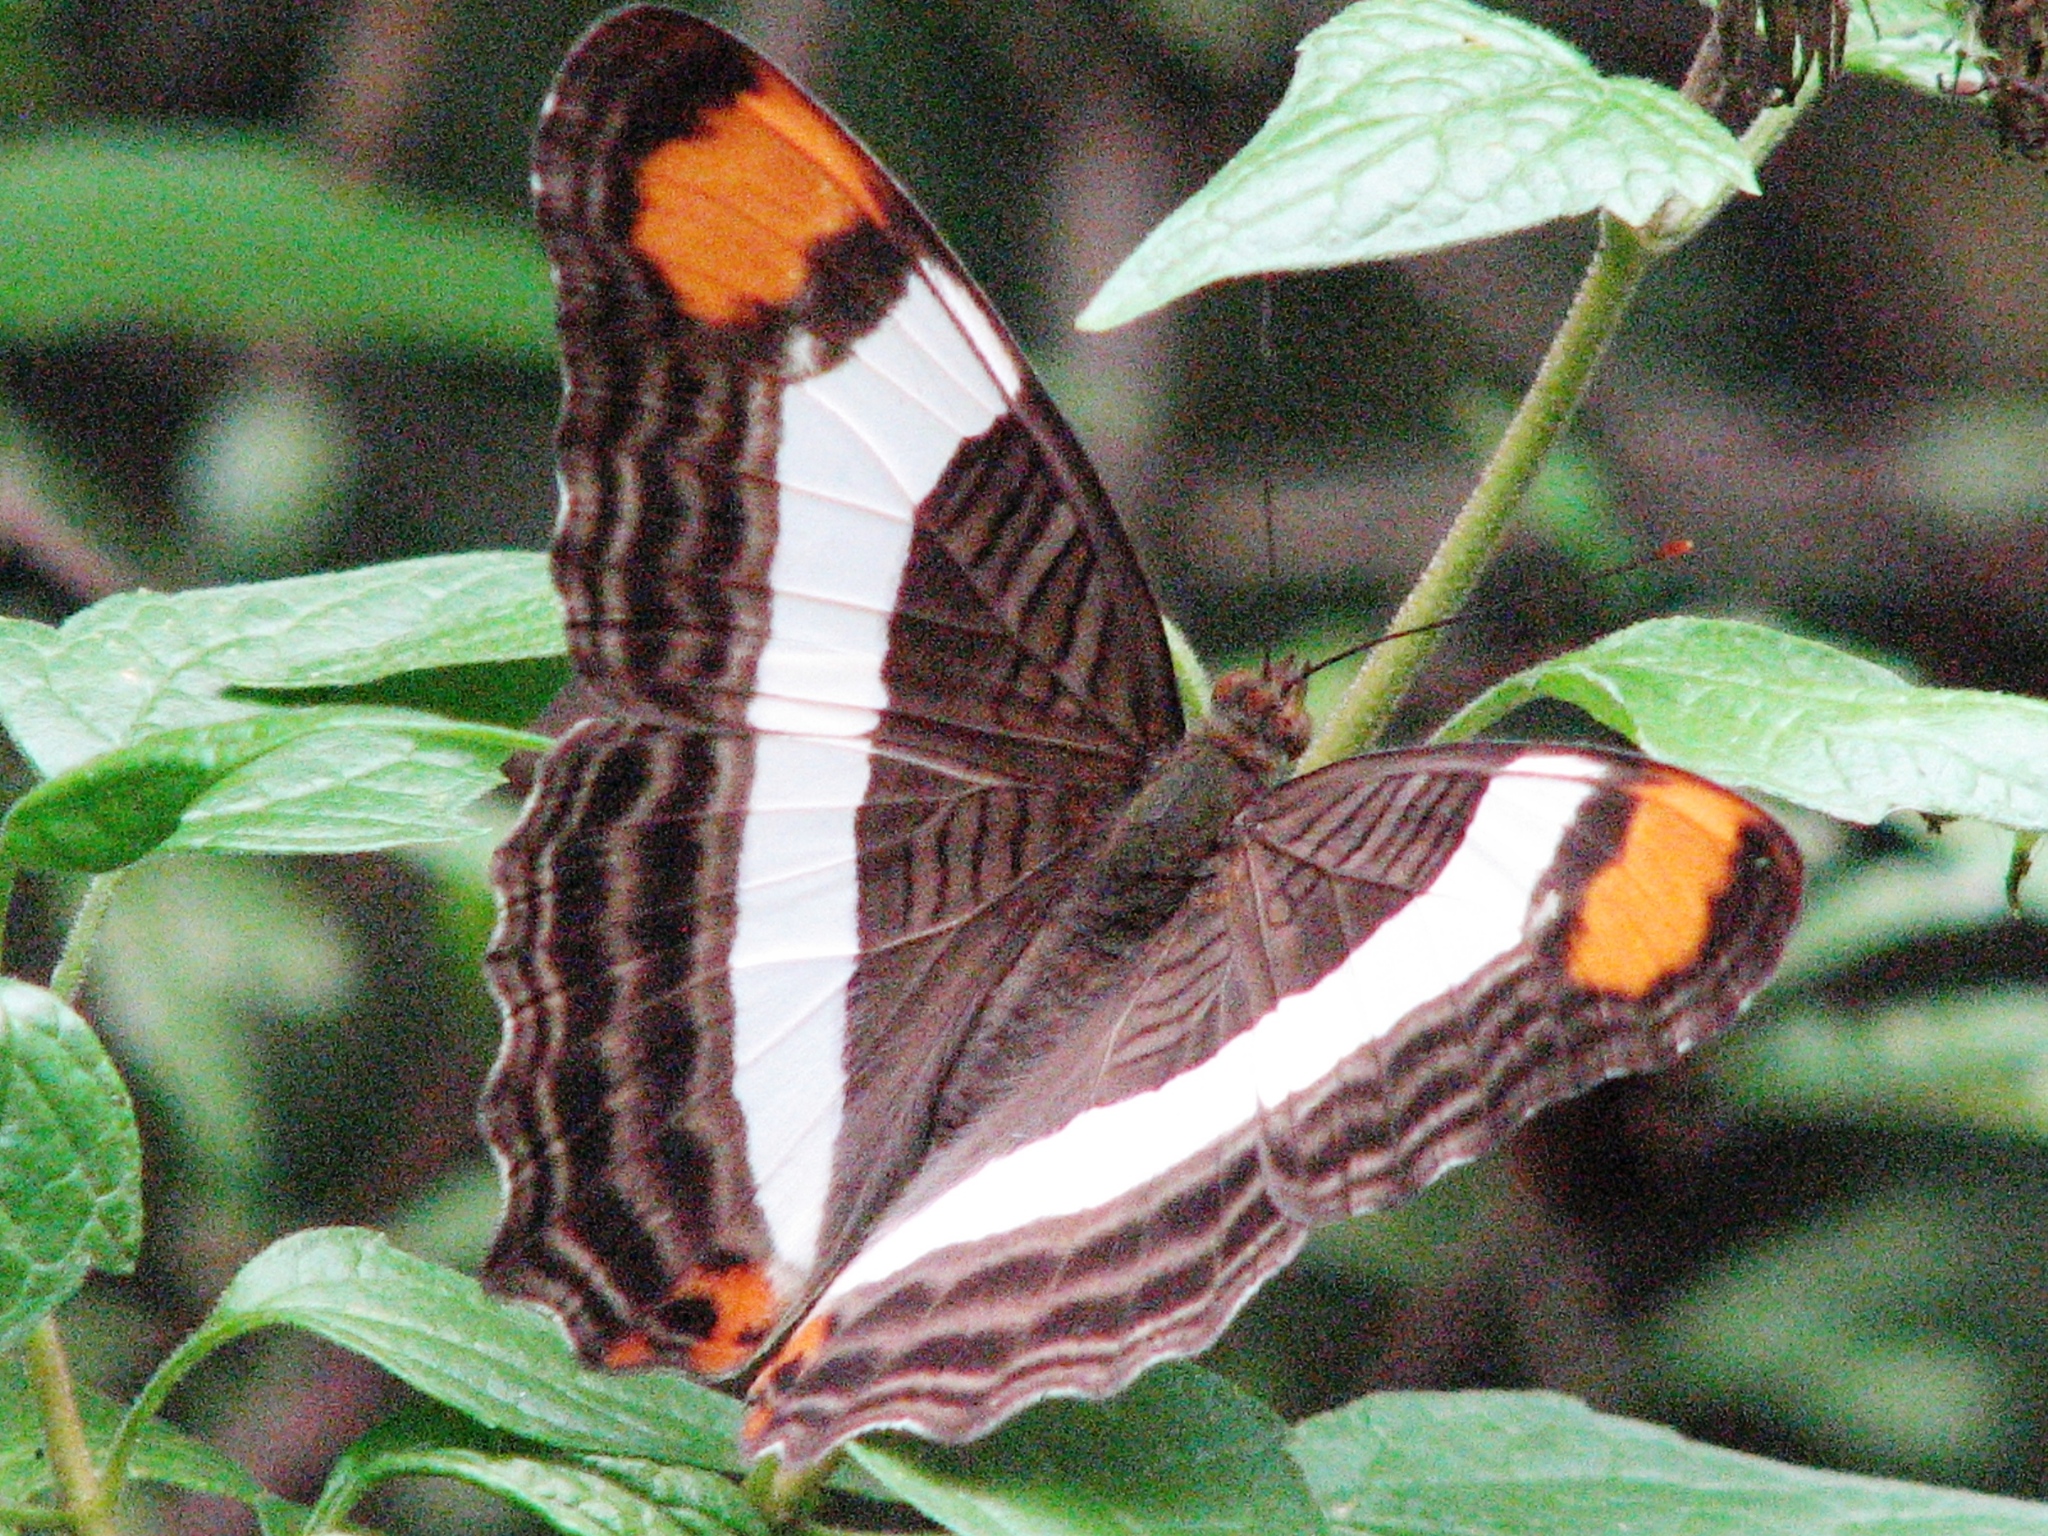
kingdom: Animalia
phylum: Arthropoda
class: Insecta
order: Lepidoptera
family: Nymphalidae
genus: Limenitis
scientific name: Limenitis fessonia
